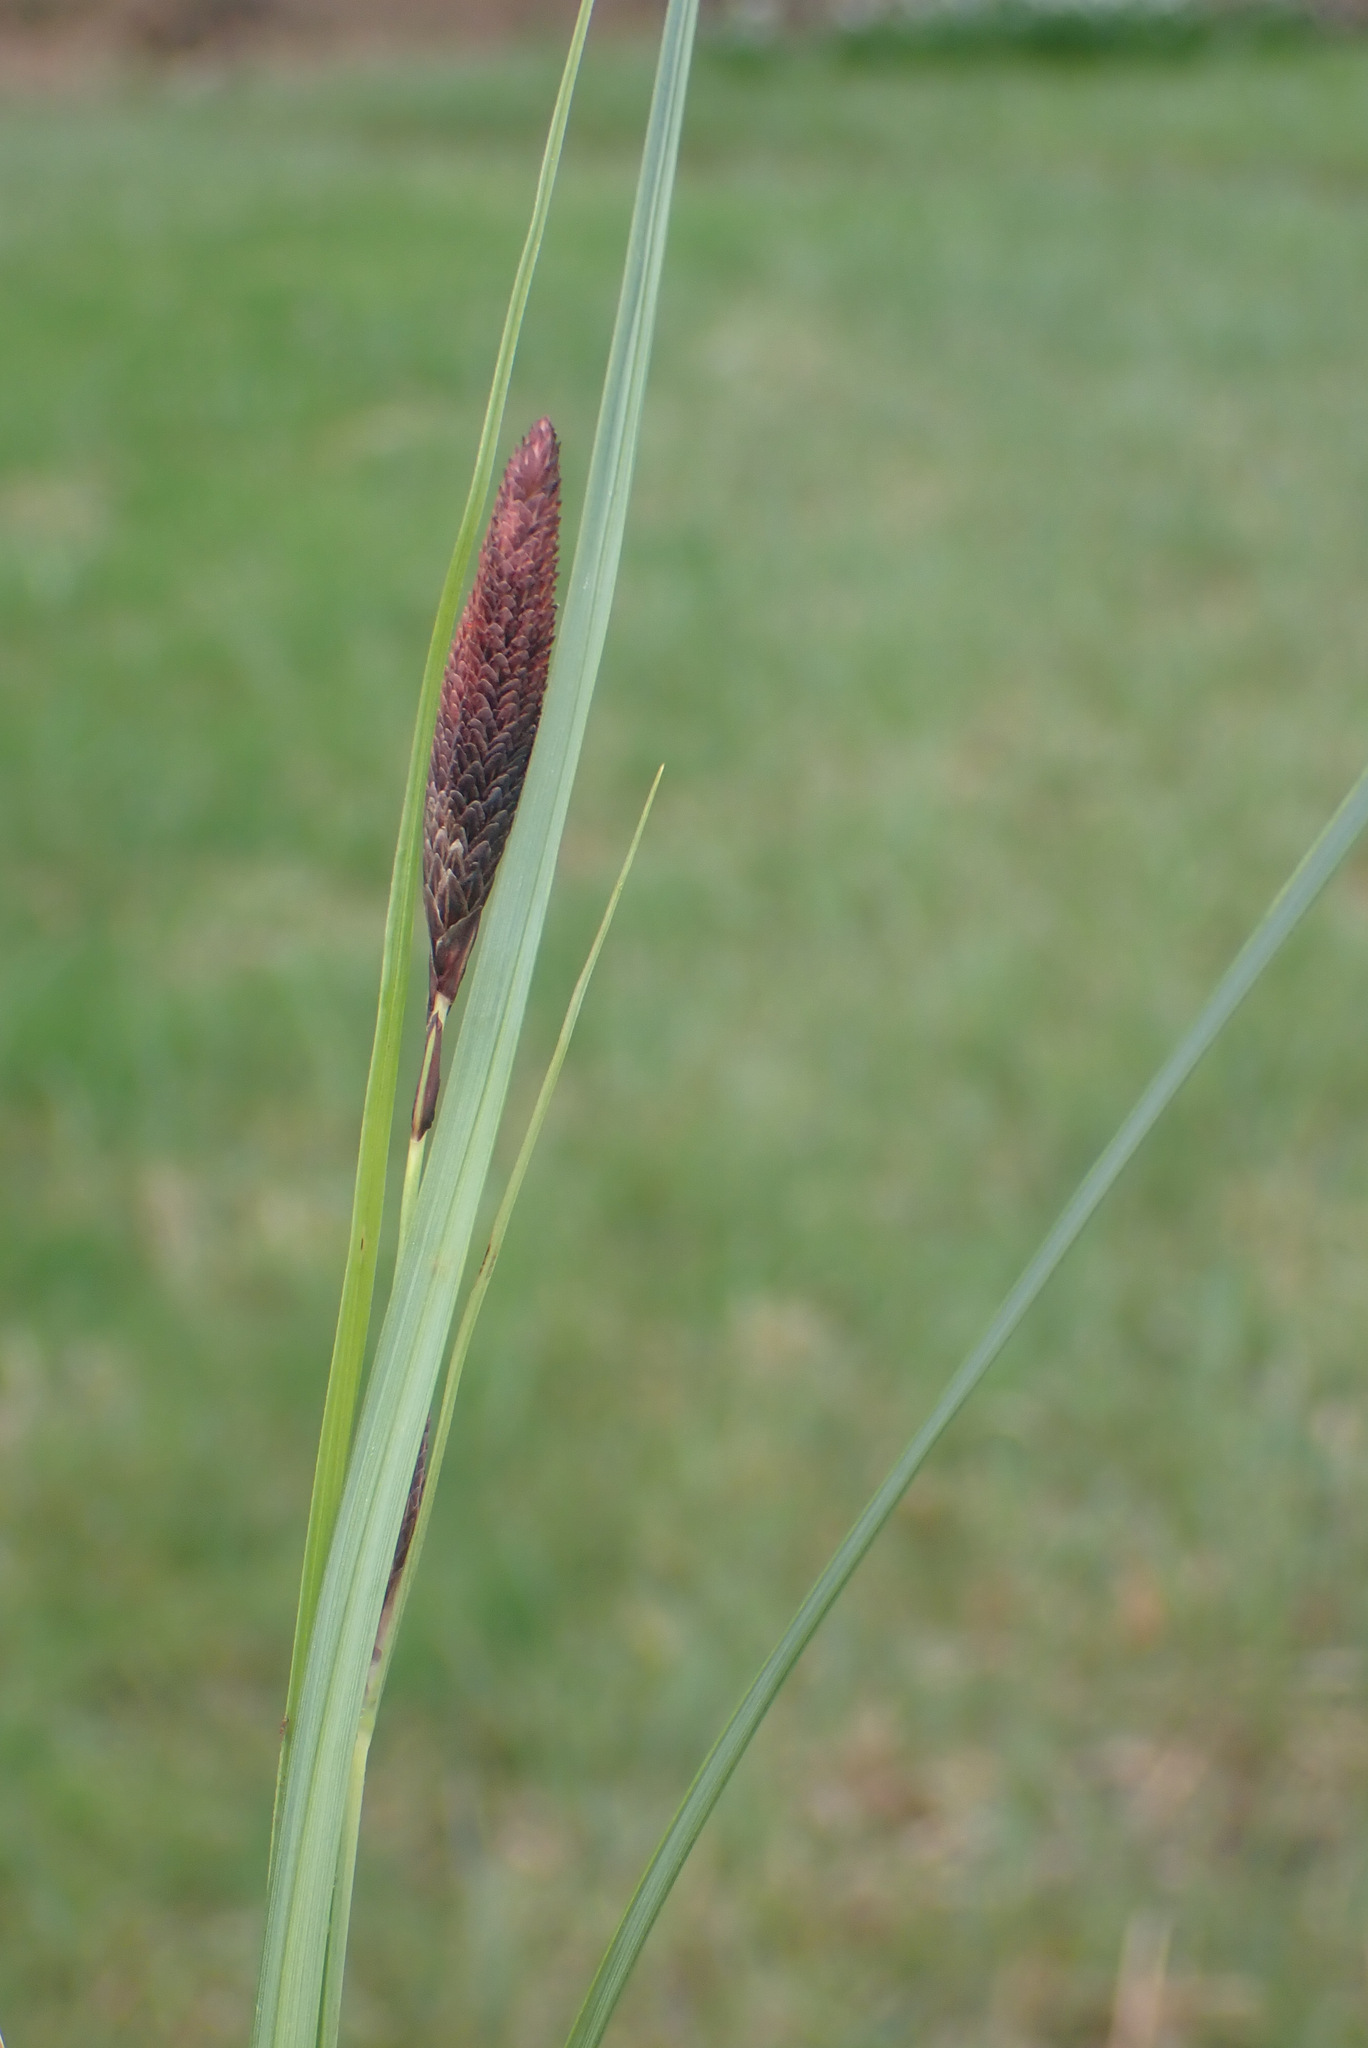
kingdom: Plantae
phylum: Tracheophyta
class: Liliopsida
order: Poales
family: Cyperaceae
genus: Carex
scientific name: Carex acutiformis
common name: Lesser pond-sedge
